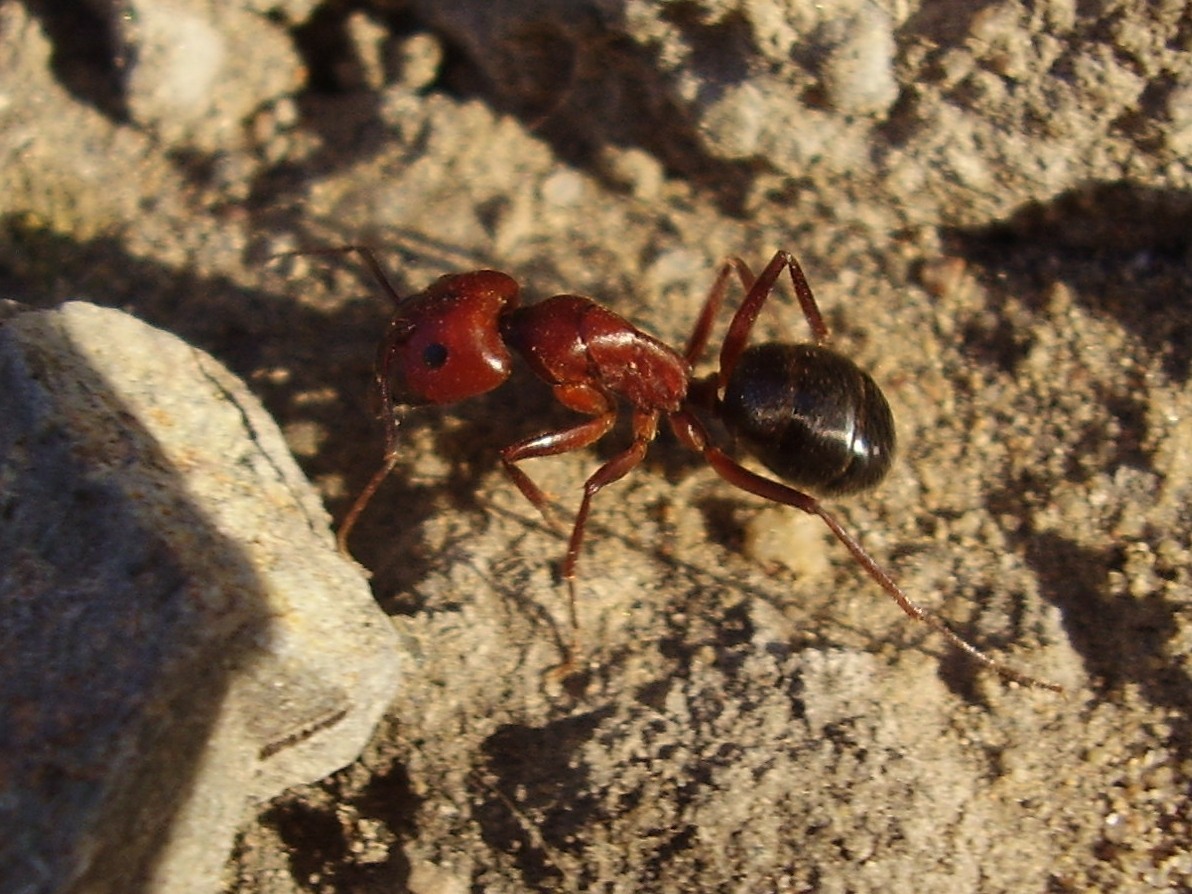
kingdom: Animalia
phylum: Arthropoda
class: Insecta
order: Hymenoptera
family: Formicidae
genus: Camponotus
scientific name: Camponotus turkestanicus
